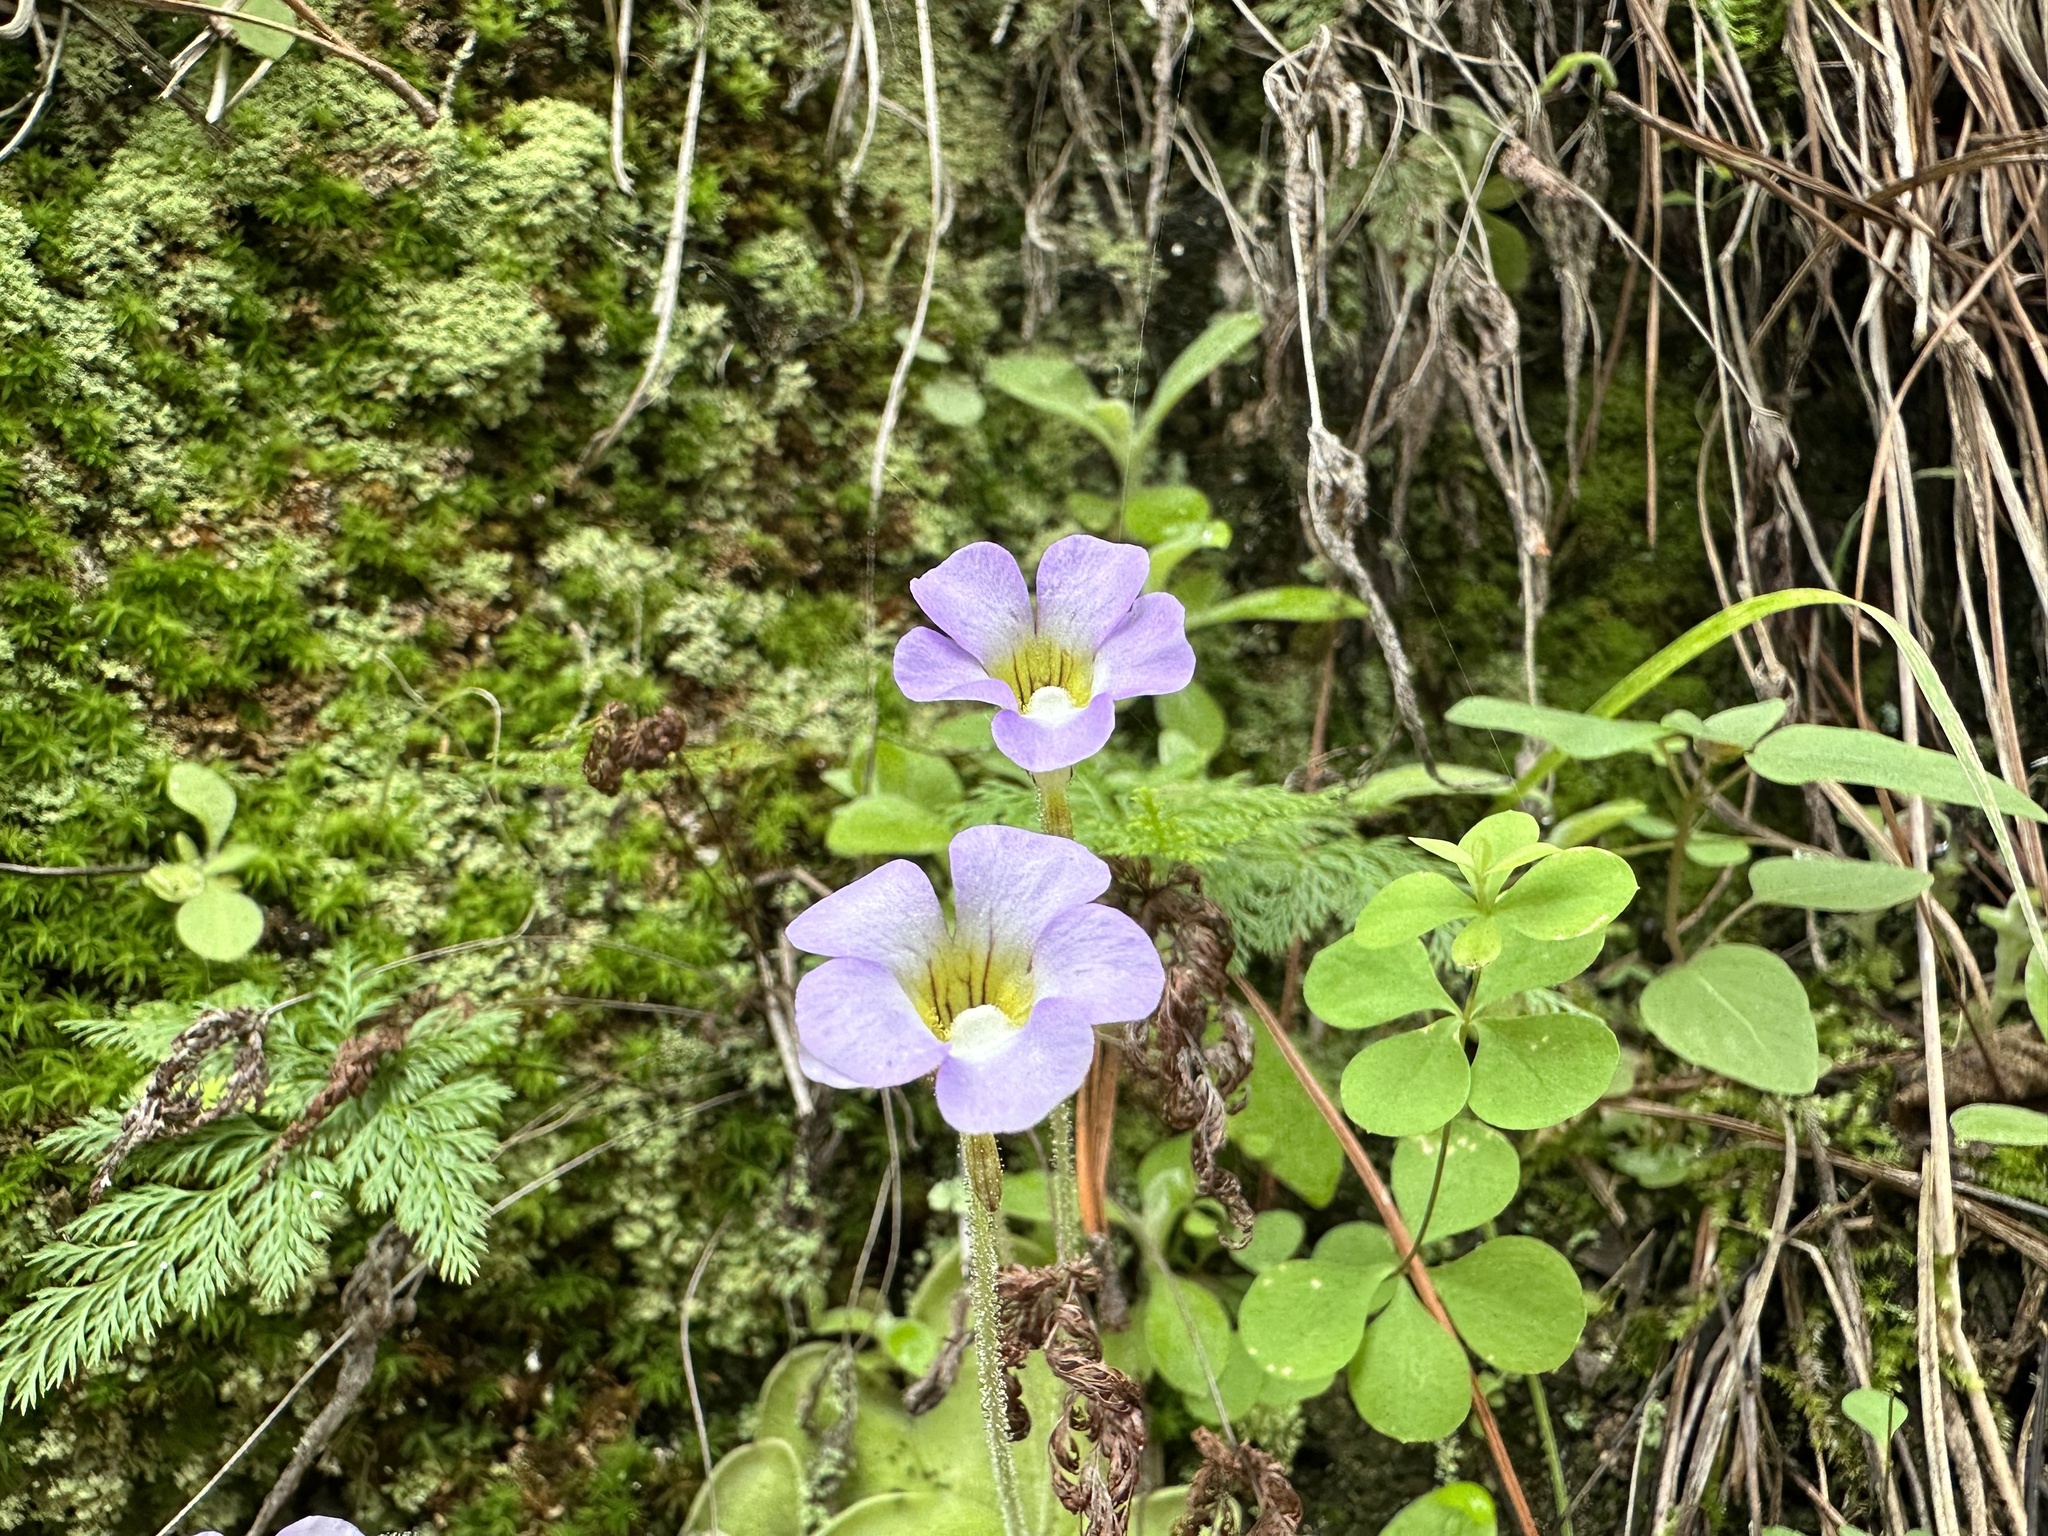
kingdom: Plantae
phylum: Tracheophyta
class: Magnoliopsida
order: Lamiales
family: Lentibulariaceae
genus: Pinguicula
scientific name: Pinguicula lilacina
